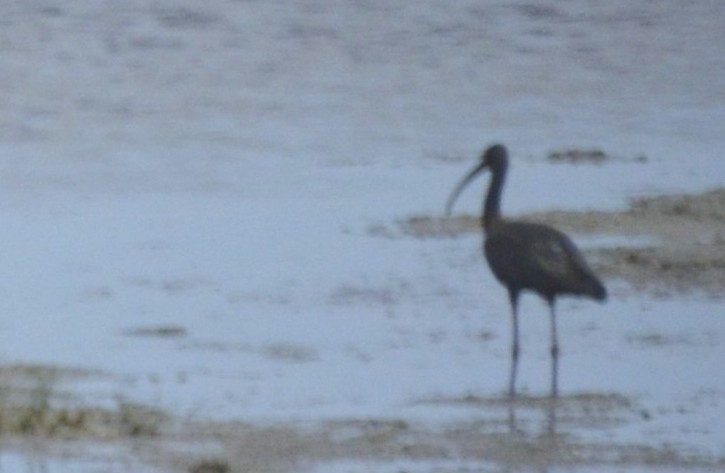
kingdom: Animalia
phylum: Chordata
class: Aves
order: Pelecaniformes
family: Threskiornithidae
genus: Plegadis
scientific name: Plegadis falcinellus
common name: Glossy ibis
